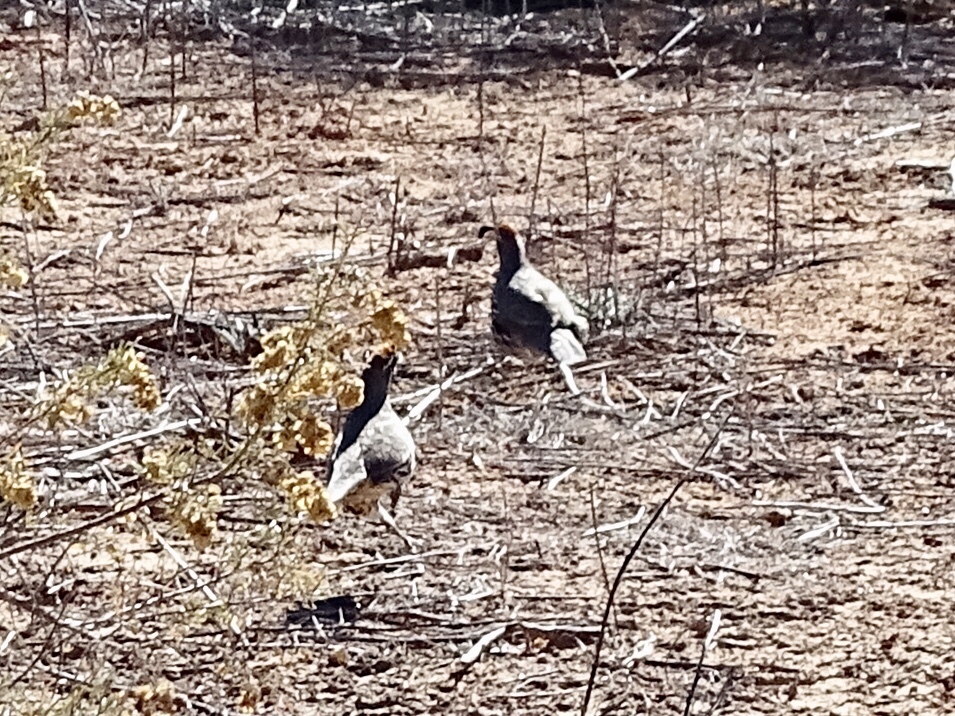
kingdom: Animalia
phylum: Chordata
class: Aves
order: Galliformes
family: Odontophoridae
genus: Callipepla
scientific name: Callipepla gambelii
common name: Gambel's quail
